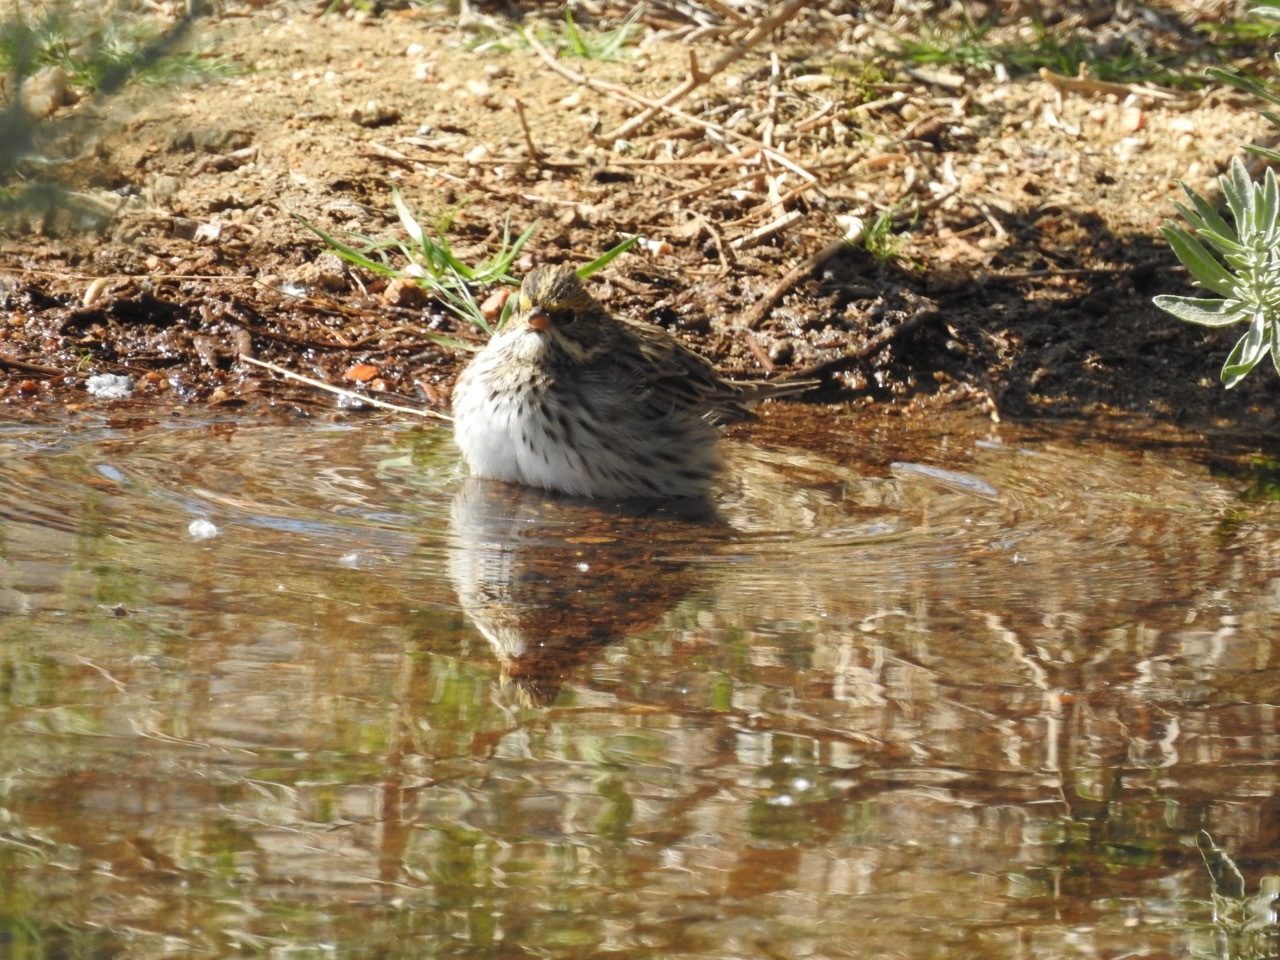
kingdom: Animalia
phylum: Chordata
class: Aves
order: Passeriformes
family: Passerellidae
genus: Passerculus
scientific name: Passerculus sandwichensis
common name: Savannah sparrow
